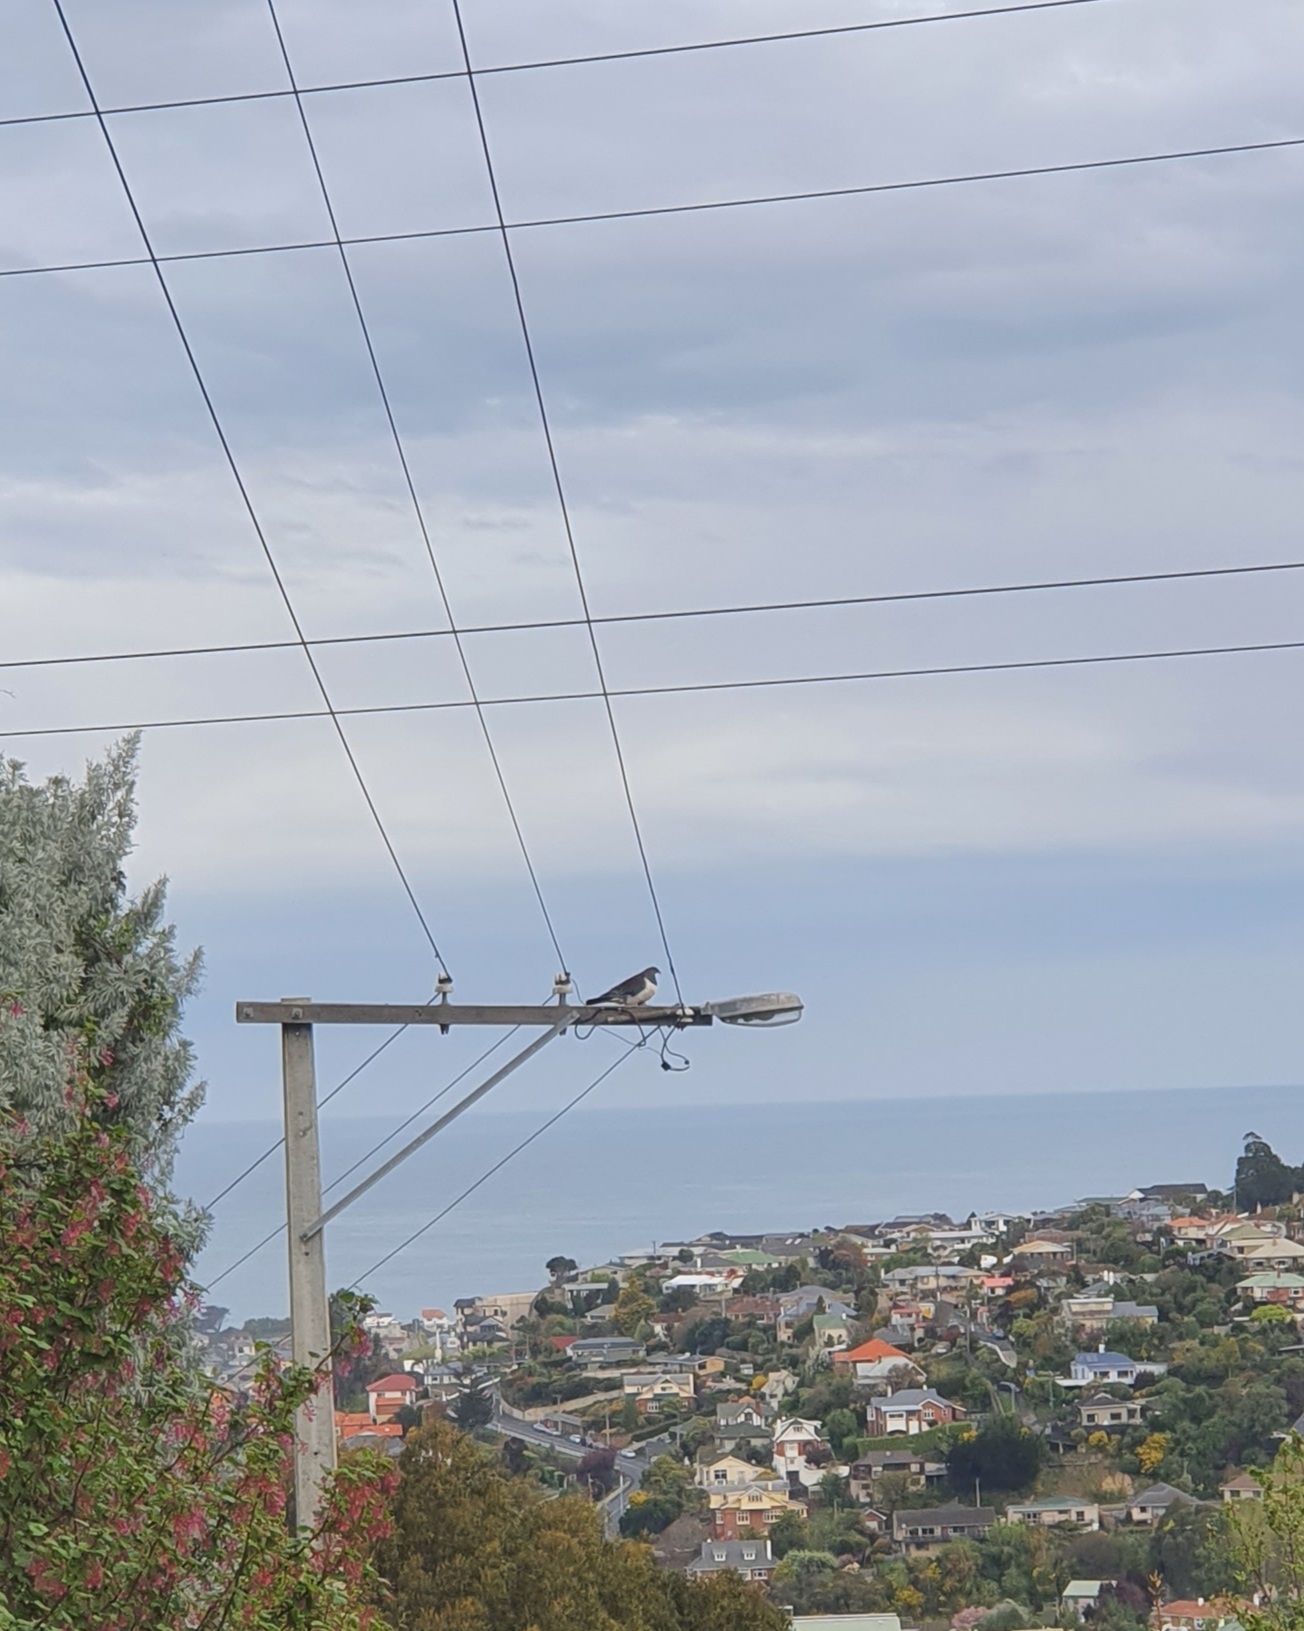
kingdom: Animalia
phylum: Chordata
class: Aves
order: Columbiformes
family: Columbidae
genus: Hemiphaga
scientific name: Hemiphaga novaeseelandiae
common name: New zealand pigeon
